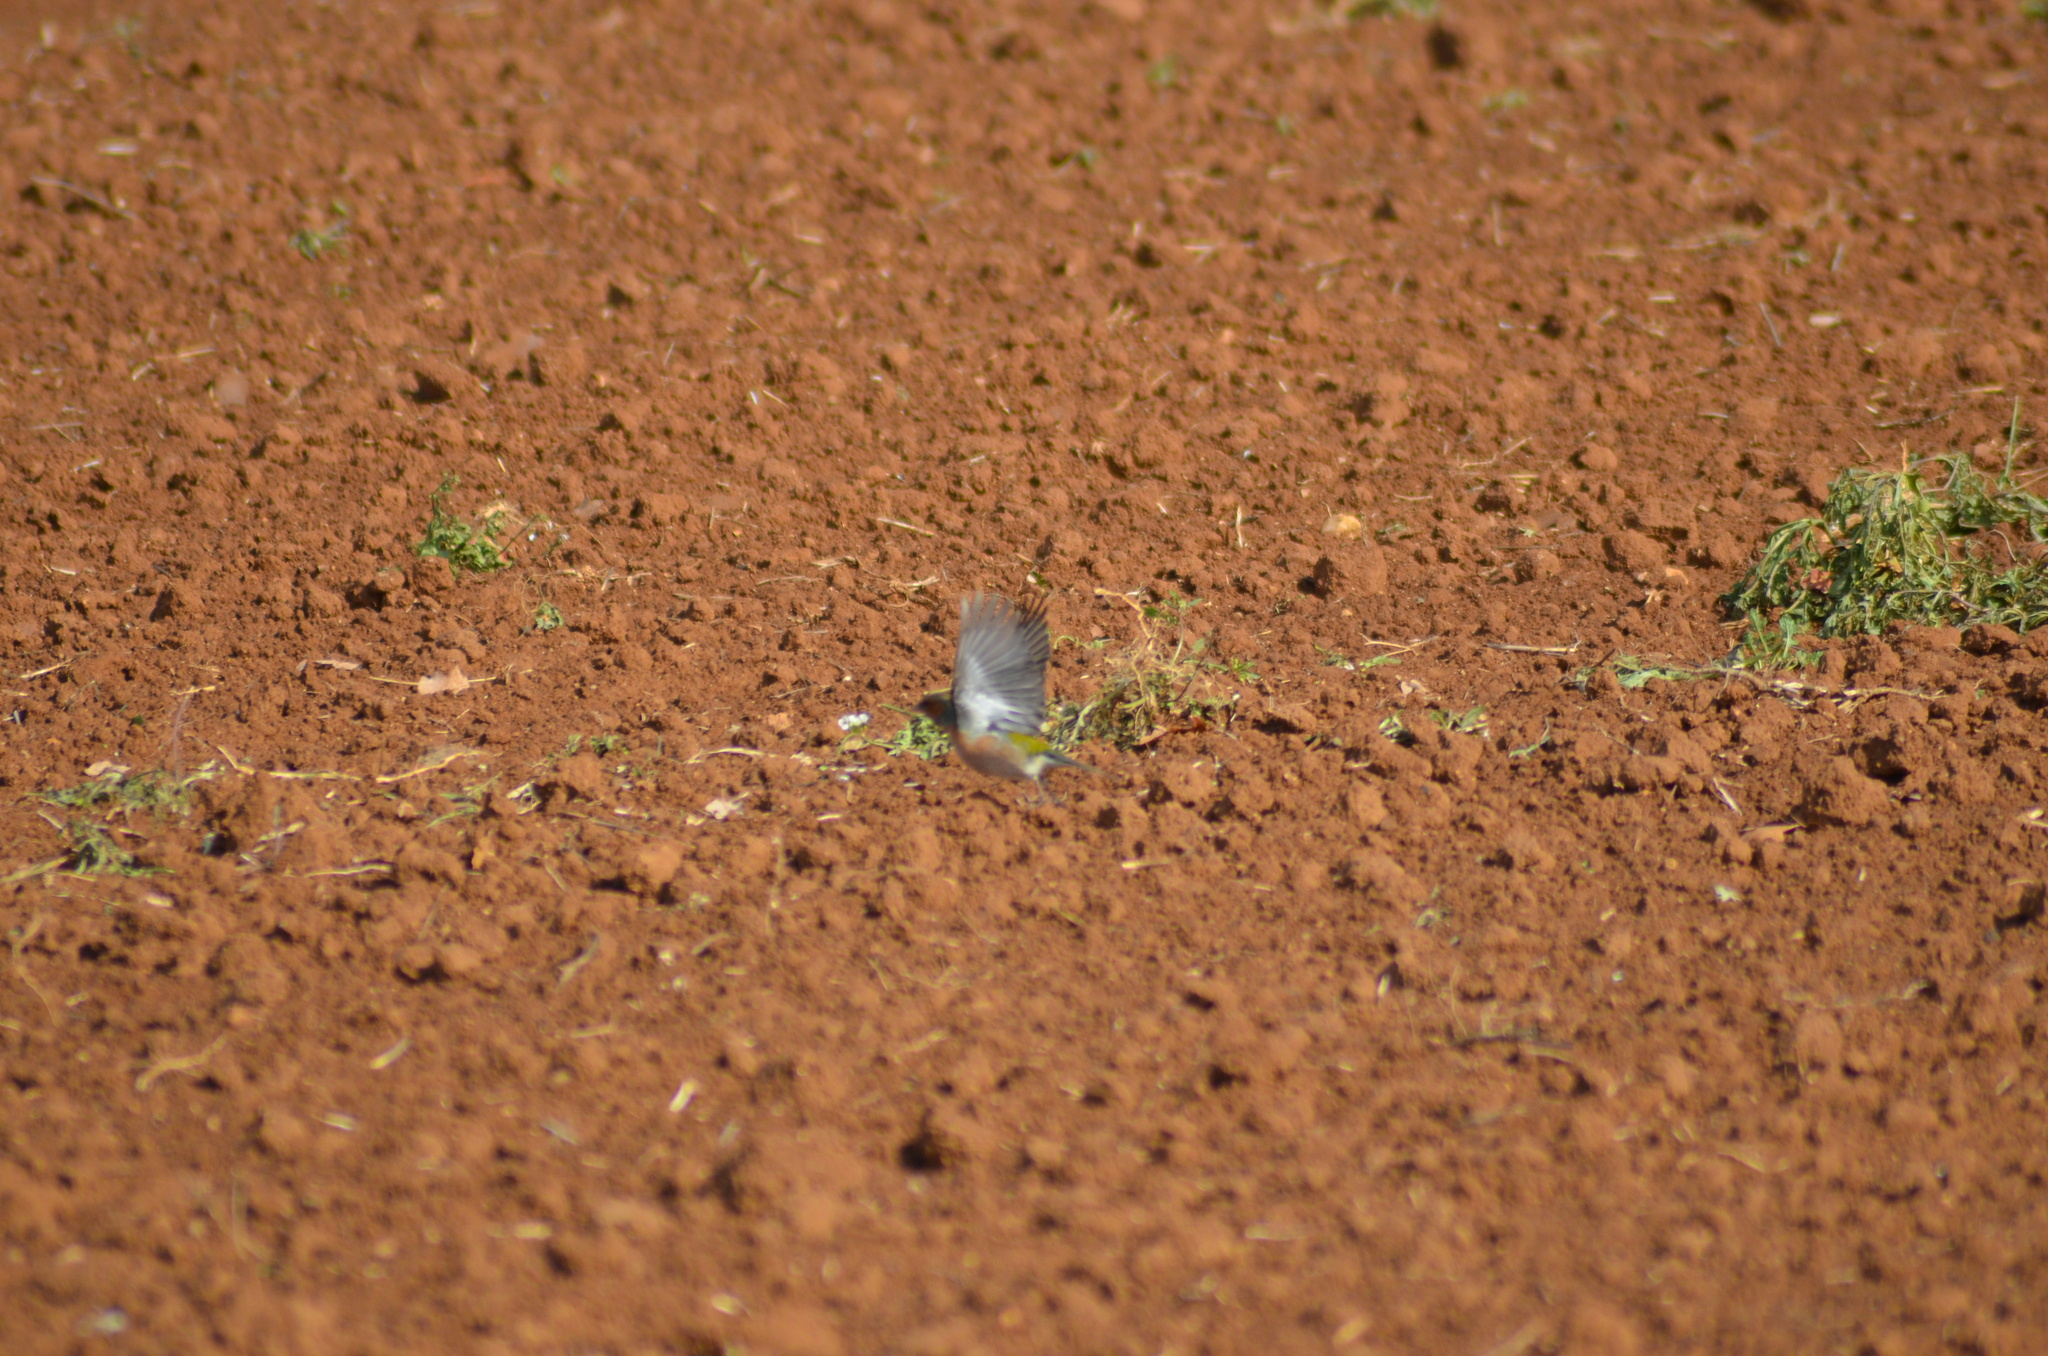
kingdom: Animalia
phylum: Chordata
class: Aves
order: Passeriformes
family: Fringillidae
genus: Fringilla
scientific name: Fringilla coelebs
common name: Common chaffinch
